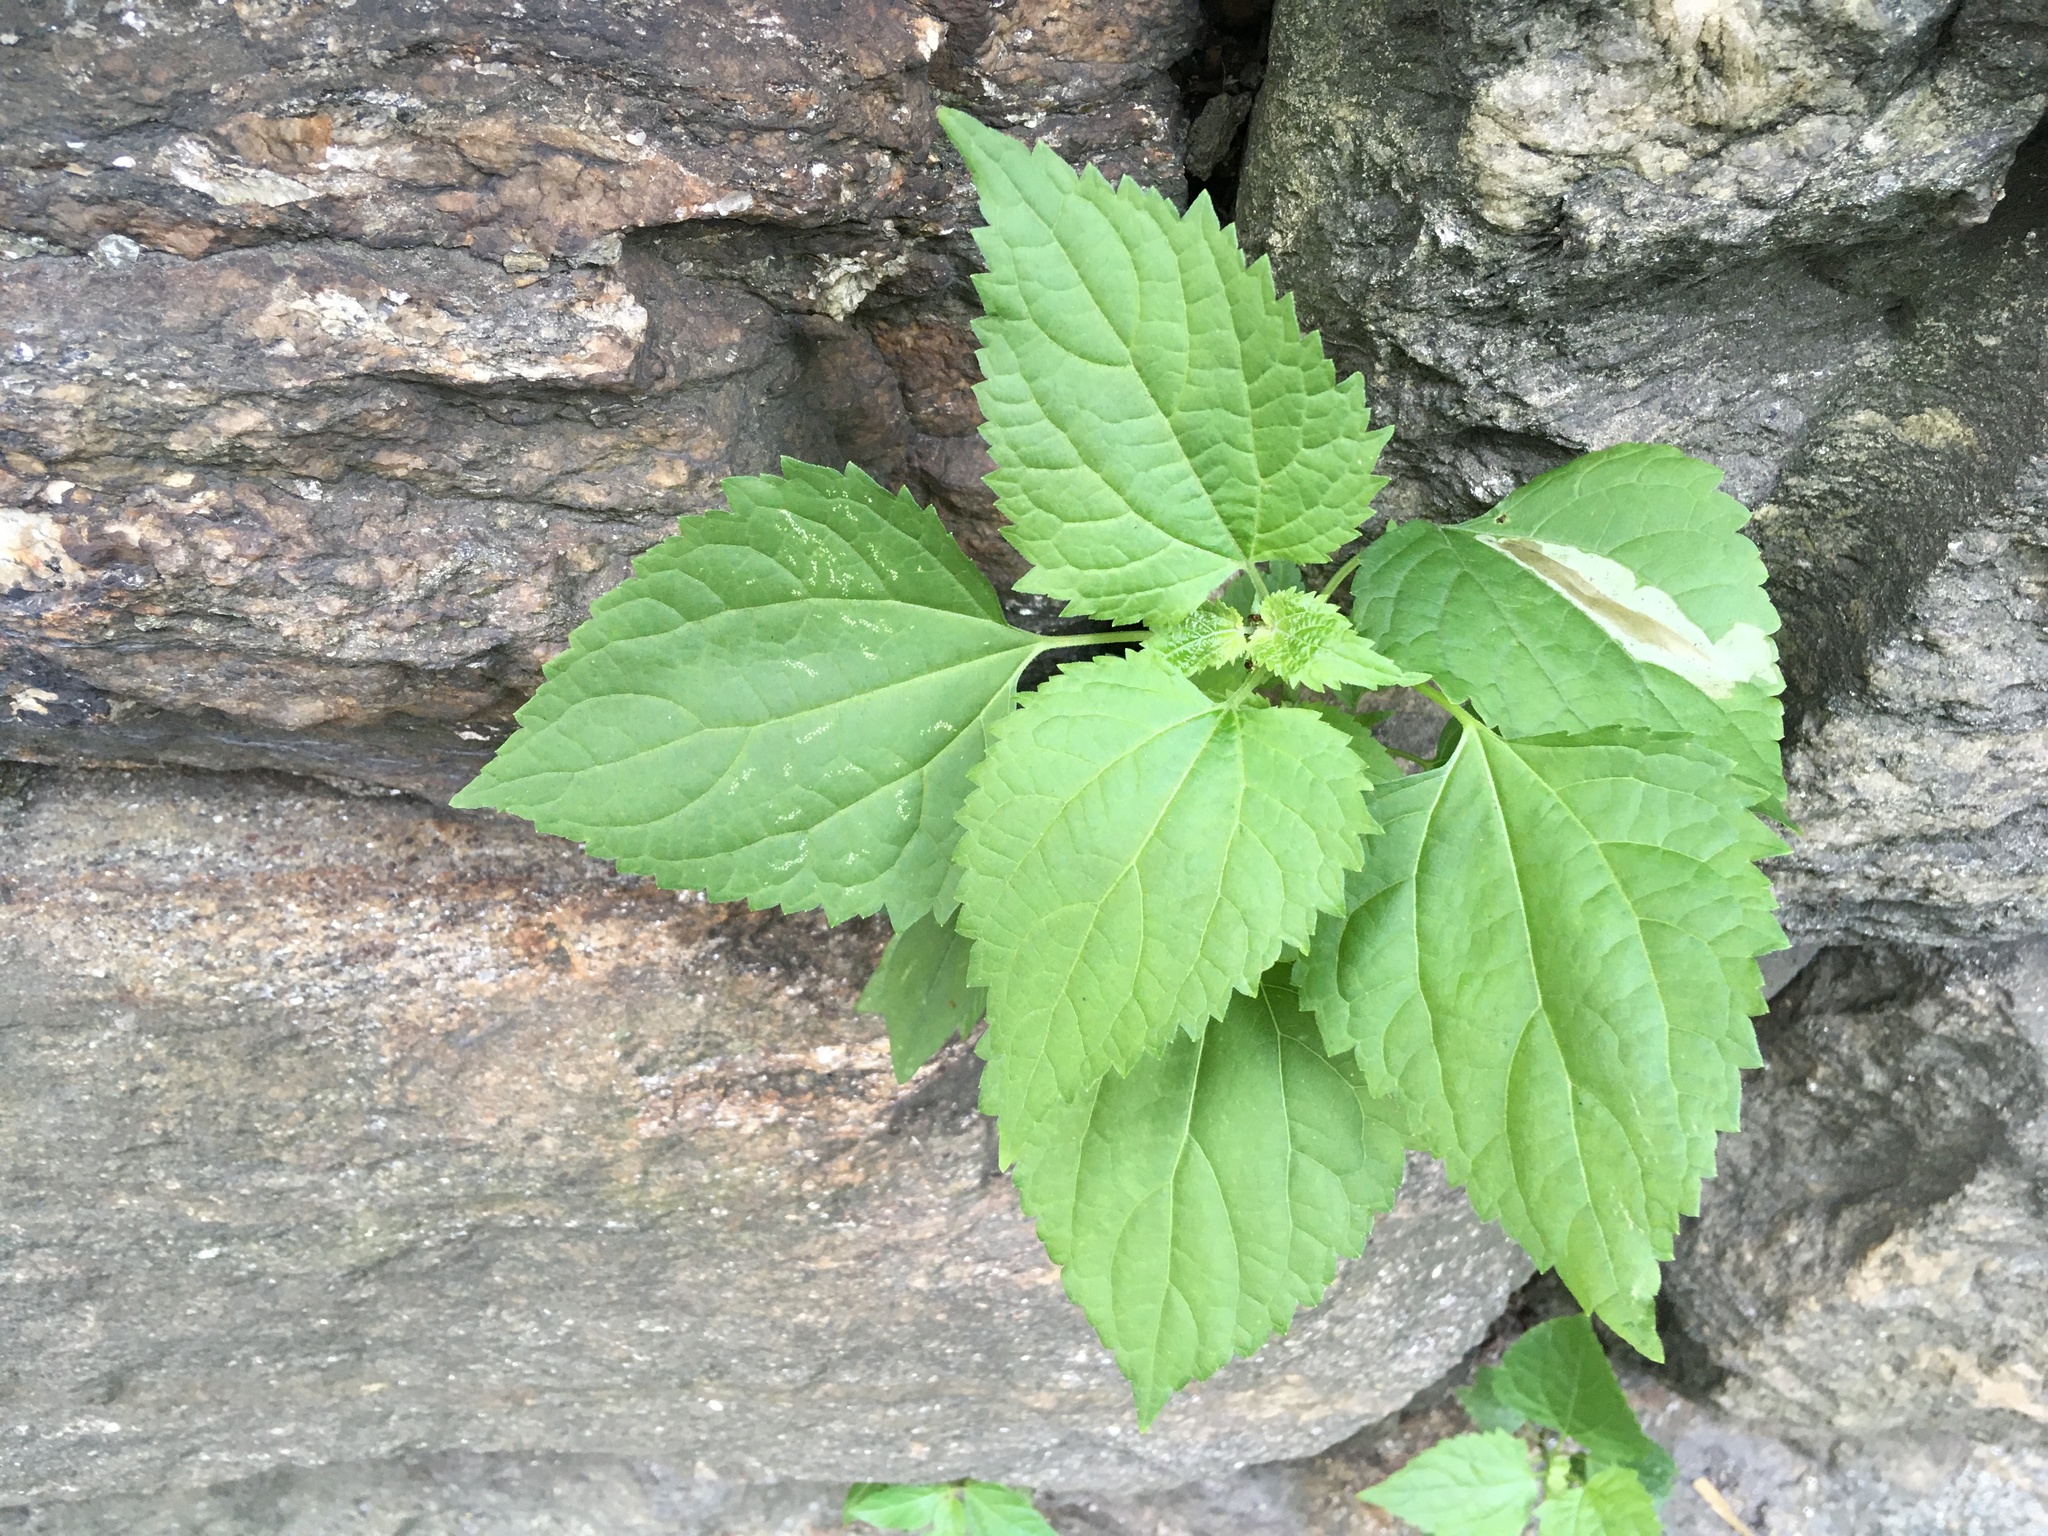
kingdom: Plantae
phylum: Tracheophyta
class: Magnoliopsida
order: Asterales
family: Asteraceae
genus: Ageratina
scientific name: Ageratina altissima
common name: White snakeroot
